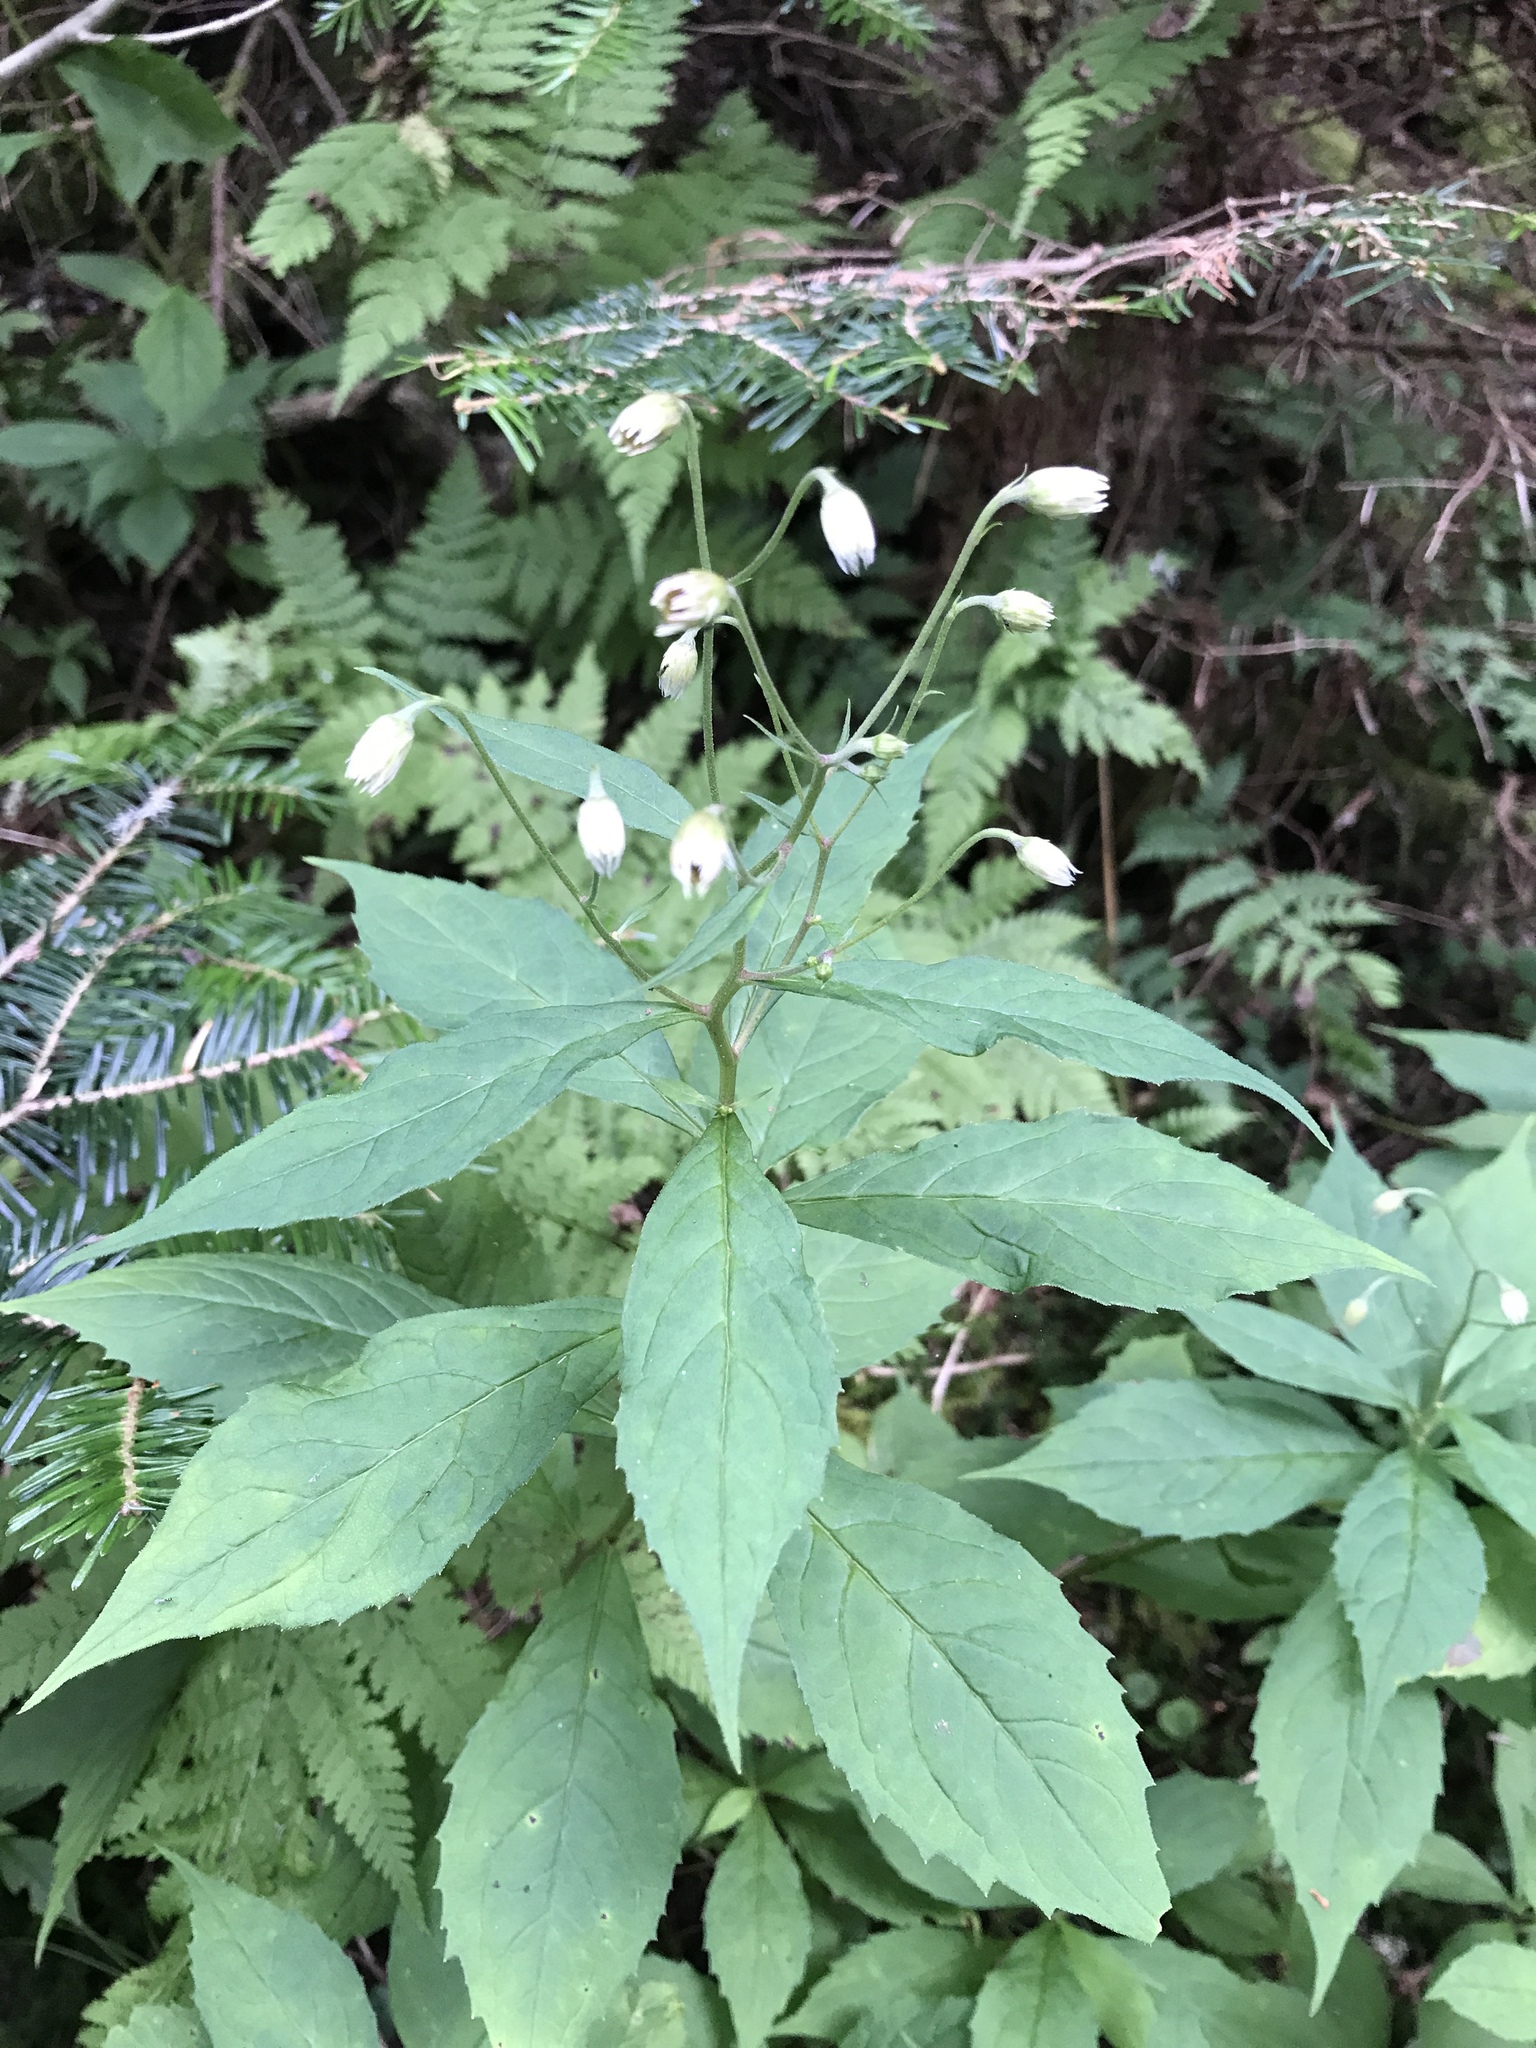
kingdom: Plantae
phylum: Tracheophyta
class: Magnoliopsida
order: Asterales
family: Asteraceae
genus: Oclemena
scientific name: Oclemena acuminata
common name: Mountain aster
